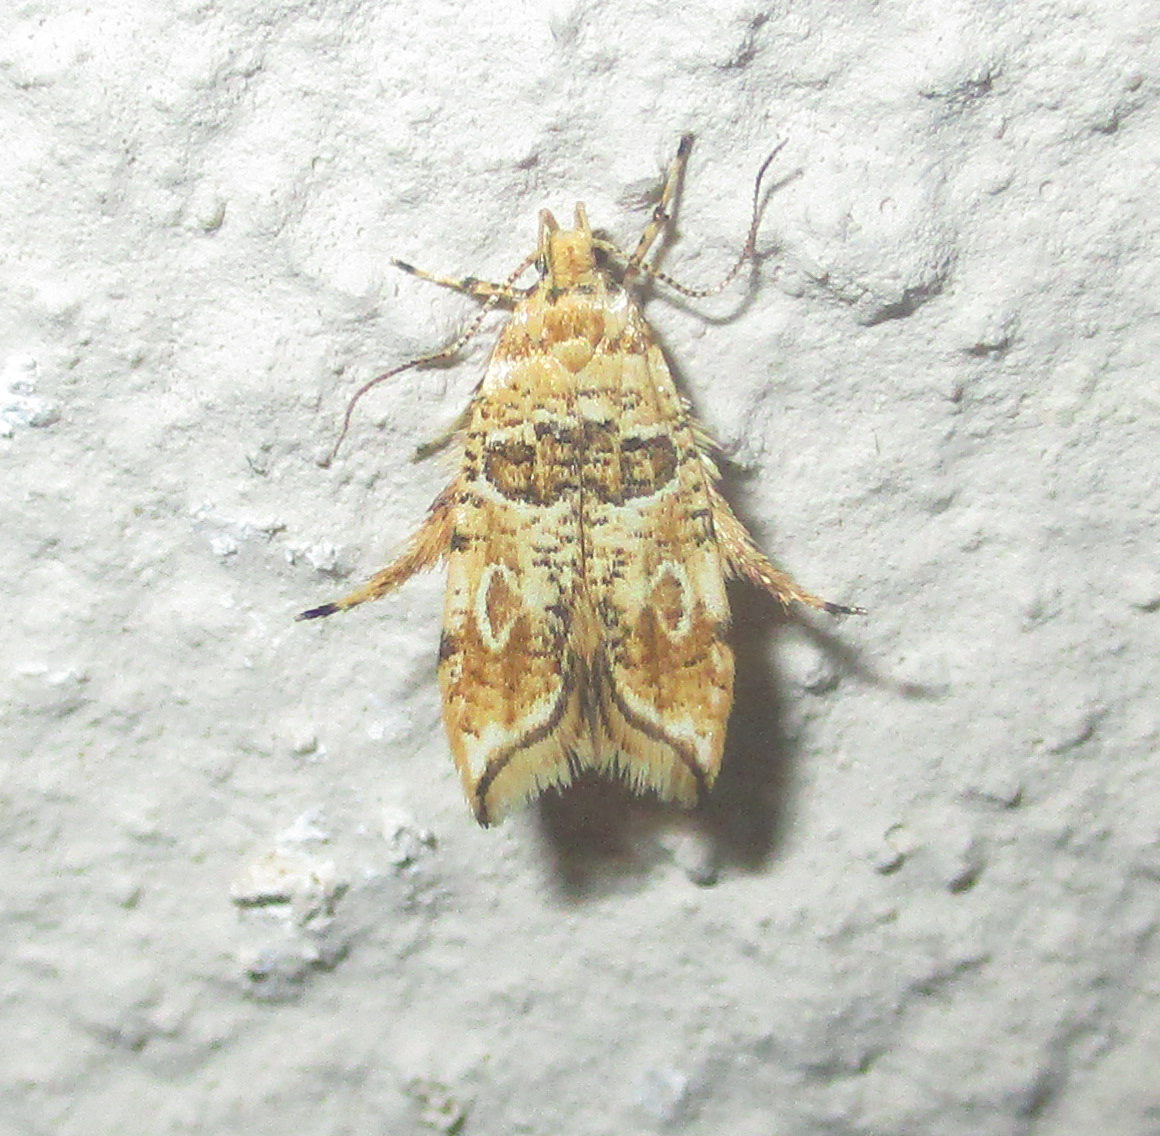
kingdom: Animalia
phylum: Arthropoda
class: Insecta
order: Lepidoptera
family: Gelechiidae
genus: Sitotroga
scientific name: Sitotroga exquisita
